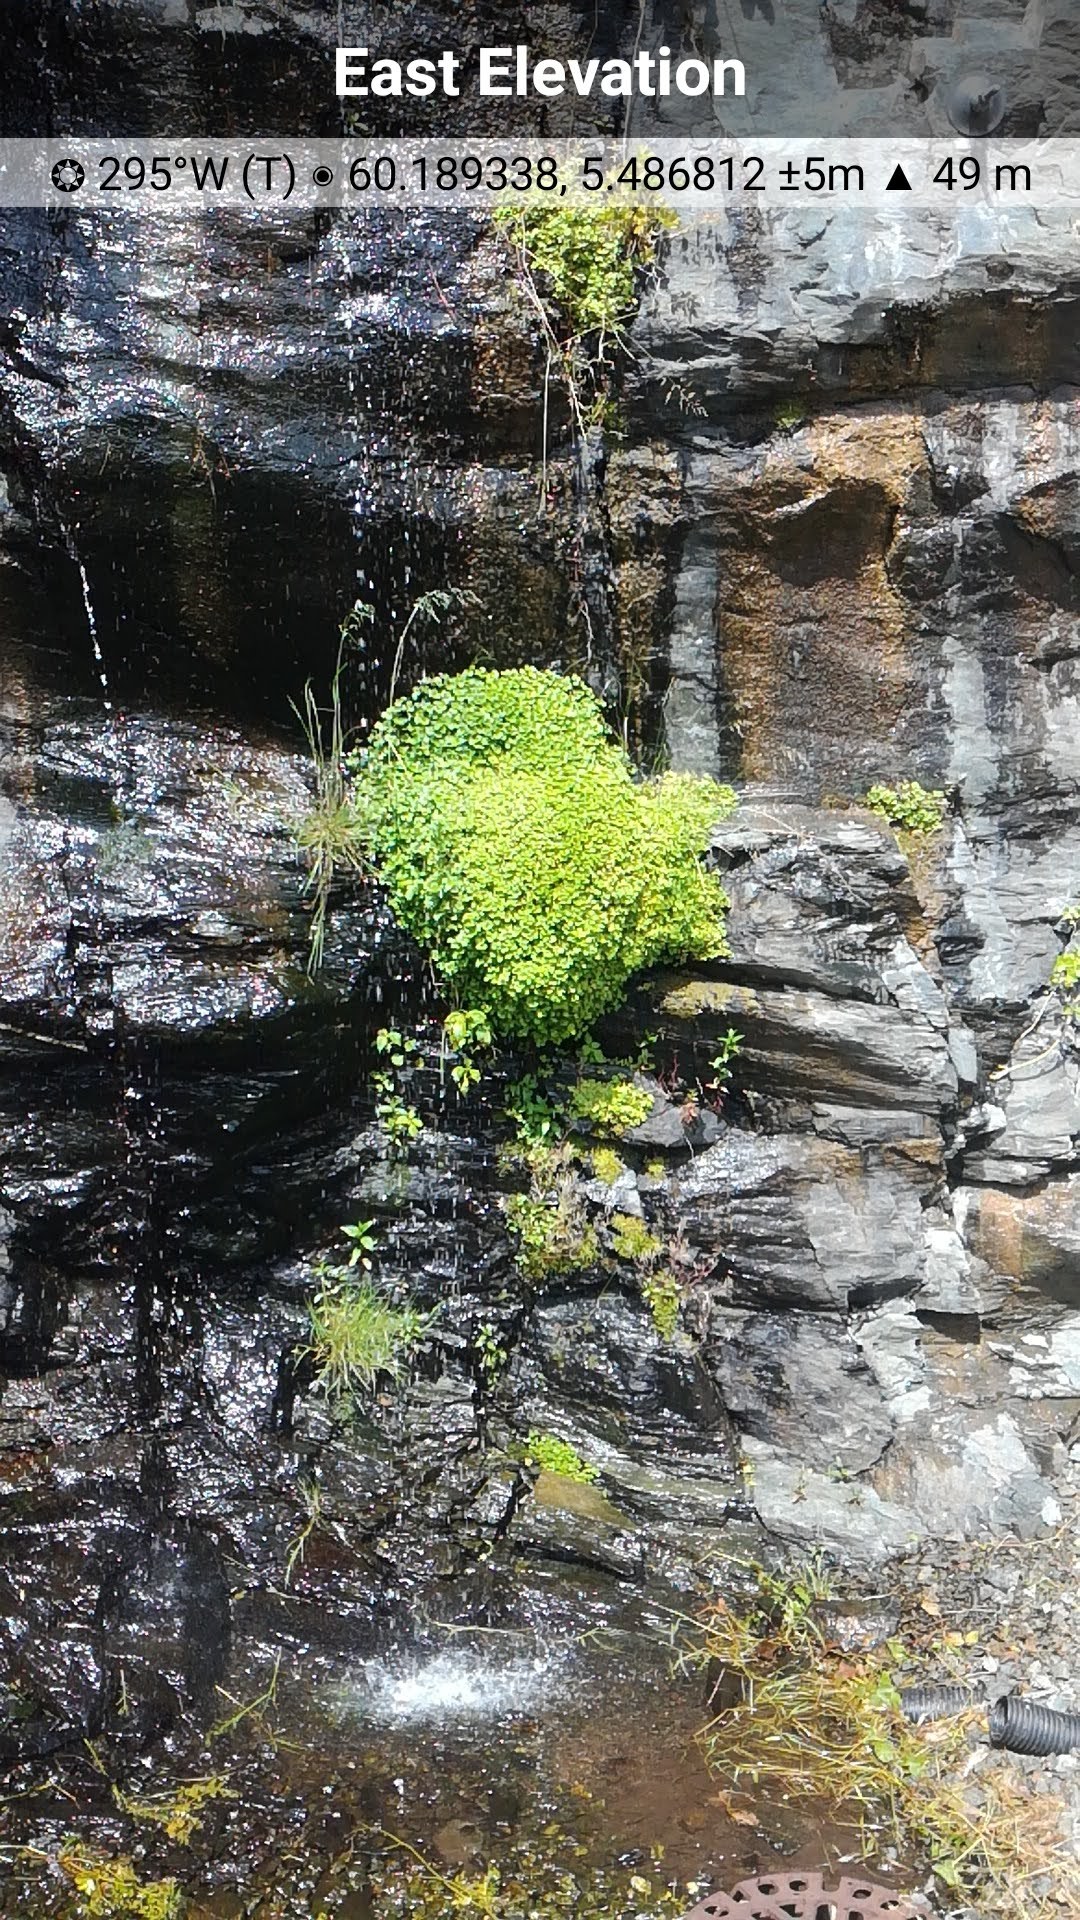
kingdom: Plantae
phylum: Tracheophyta
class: Magnoliopsida
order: Saxifragales
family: Saxifragaceae
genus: Chrysosplenium
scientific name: Chrysosplenium oppositifolium
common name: Opposite-leaved golden-saxifrage
